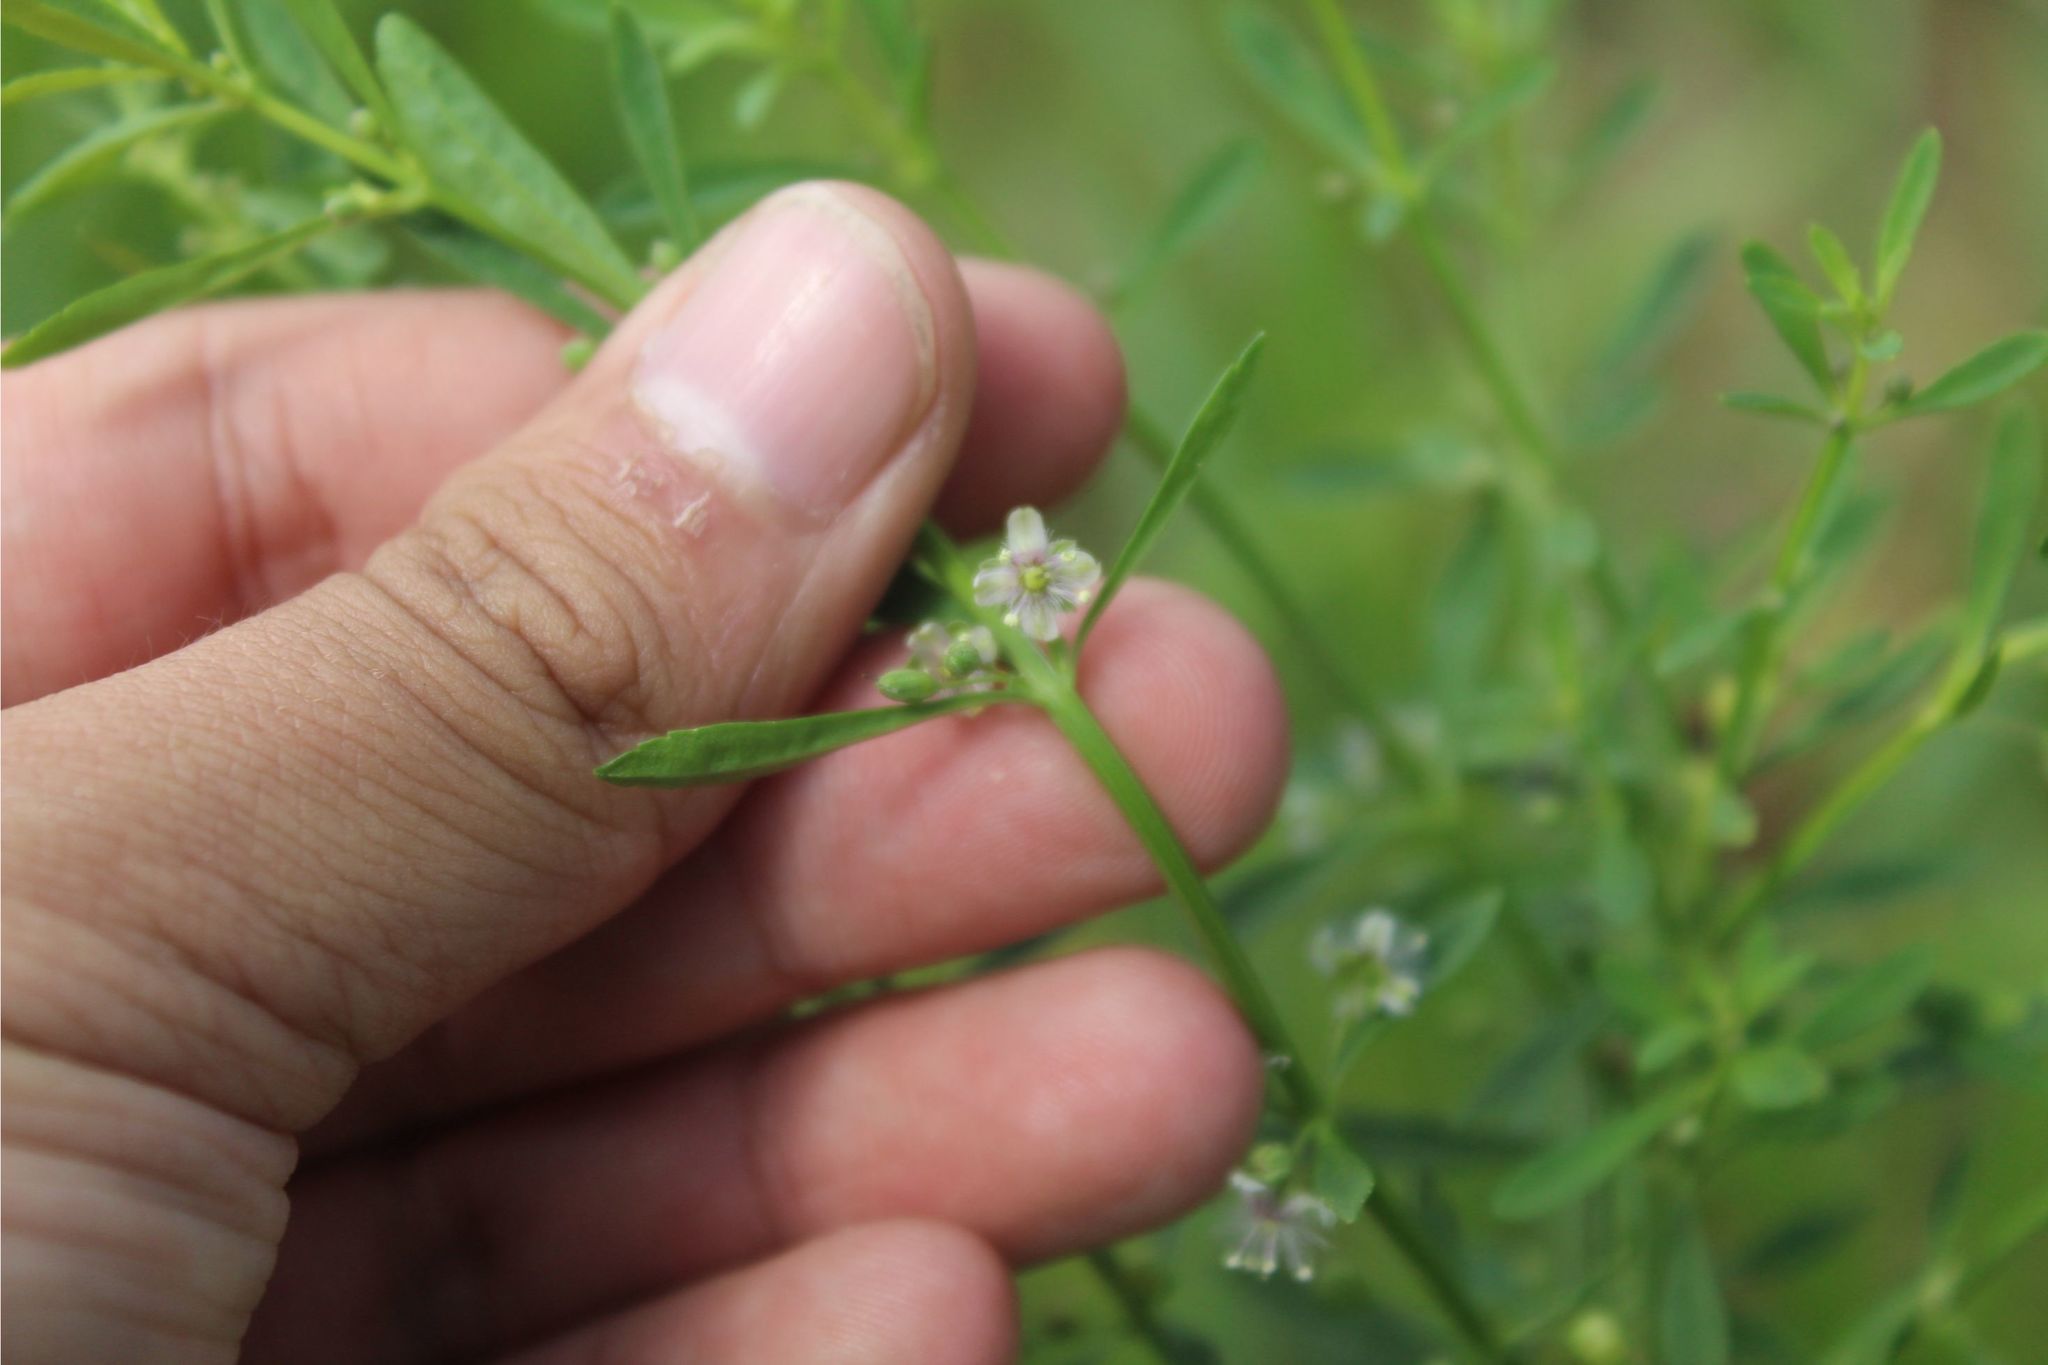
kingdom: Plantae
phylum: Tracheophyta
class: Magnoliopsida
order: Lamiales
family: Plantaginaceae
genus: Scoparia
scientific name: Scoparia dulcis
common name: Scoparia-weed
